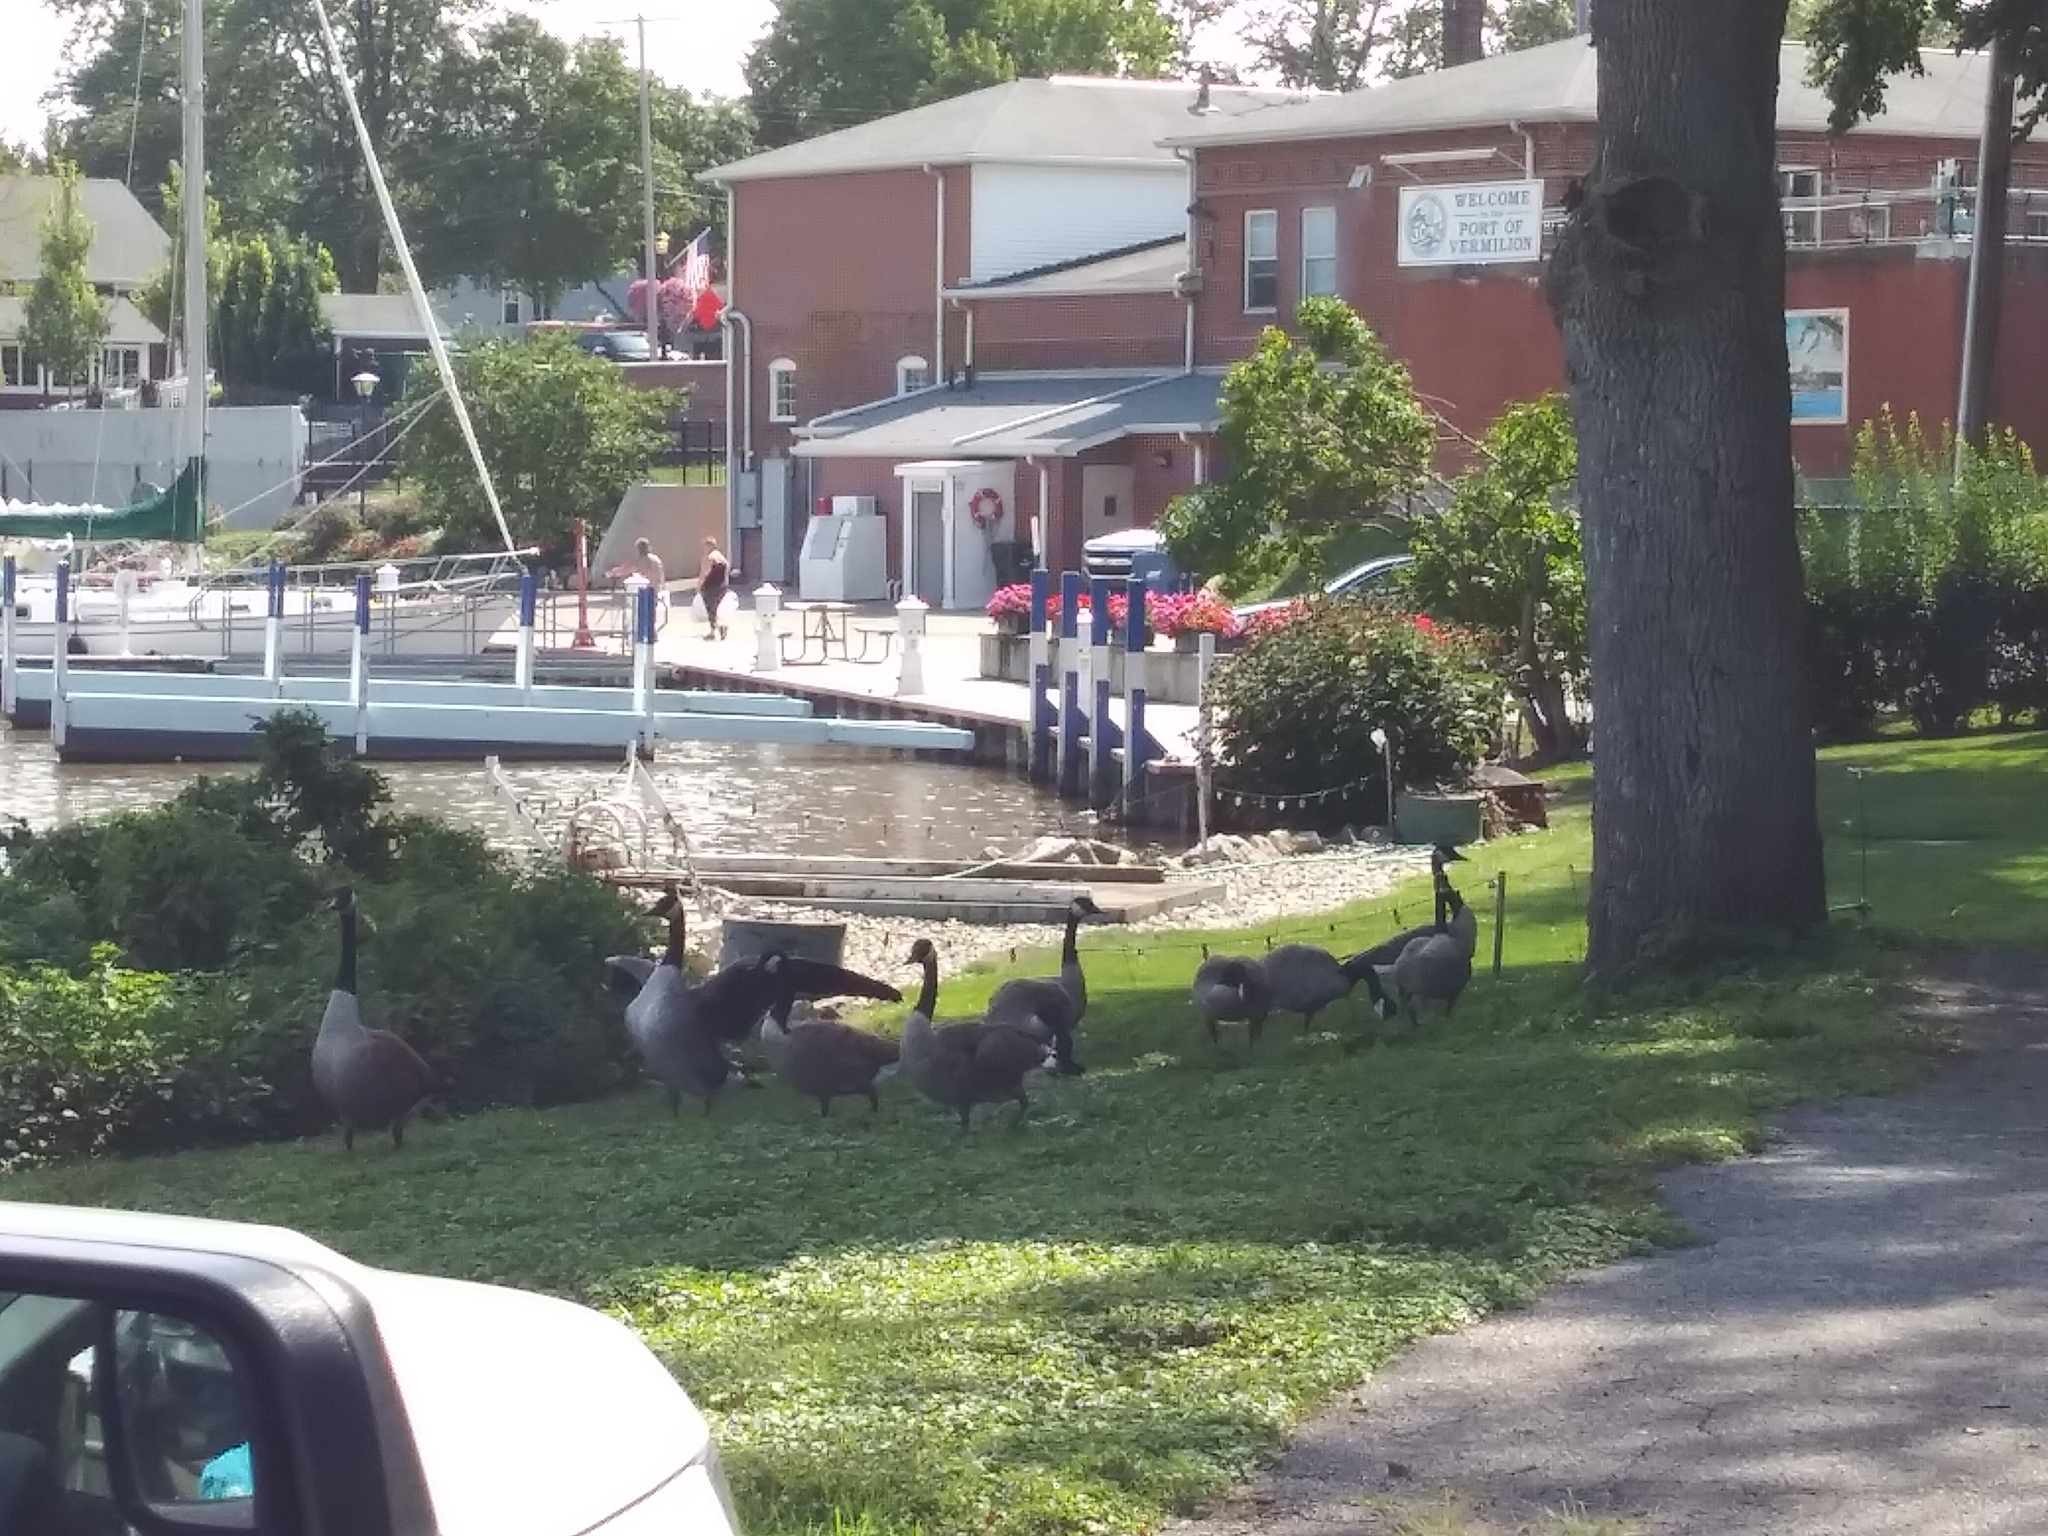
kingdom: Animalia
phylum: Chordata
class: Aves
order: Anseriformes
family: Anatidae
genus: Branta
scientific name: Branta canadensis
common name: Canada goose
